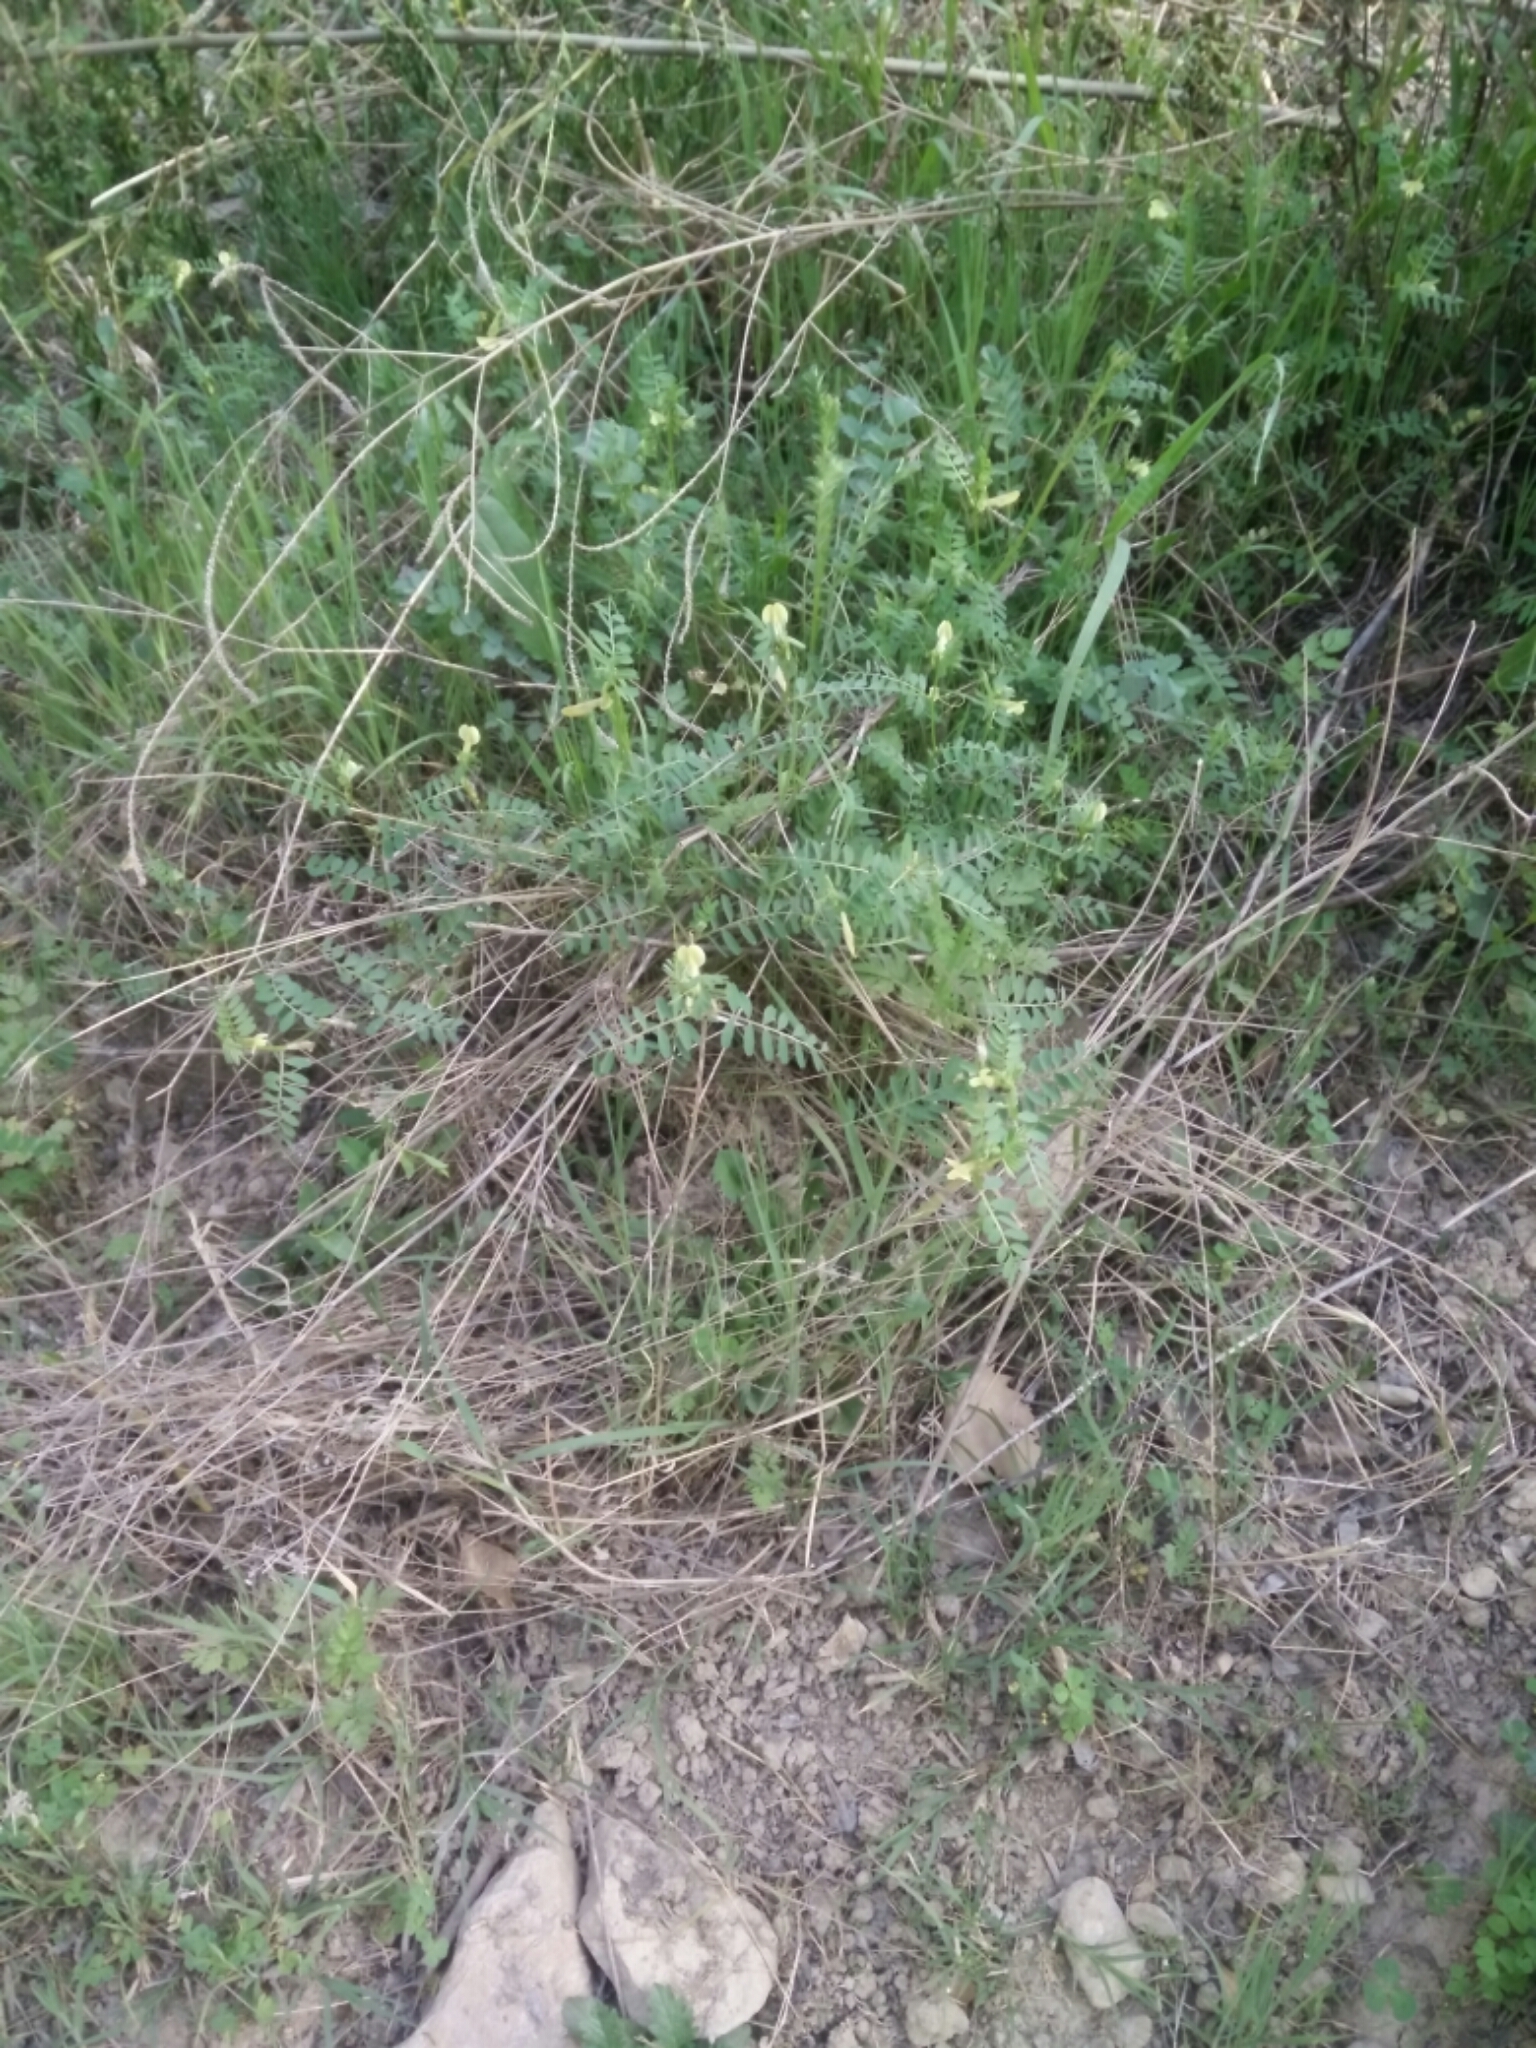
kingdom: Plantae
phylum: Tracheophyta
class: Magnoliopsida
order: Fabales
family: Fabaceae
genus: Vicia
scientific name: Vicia hybrida
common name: Hairy yellow vetch
